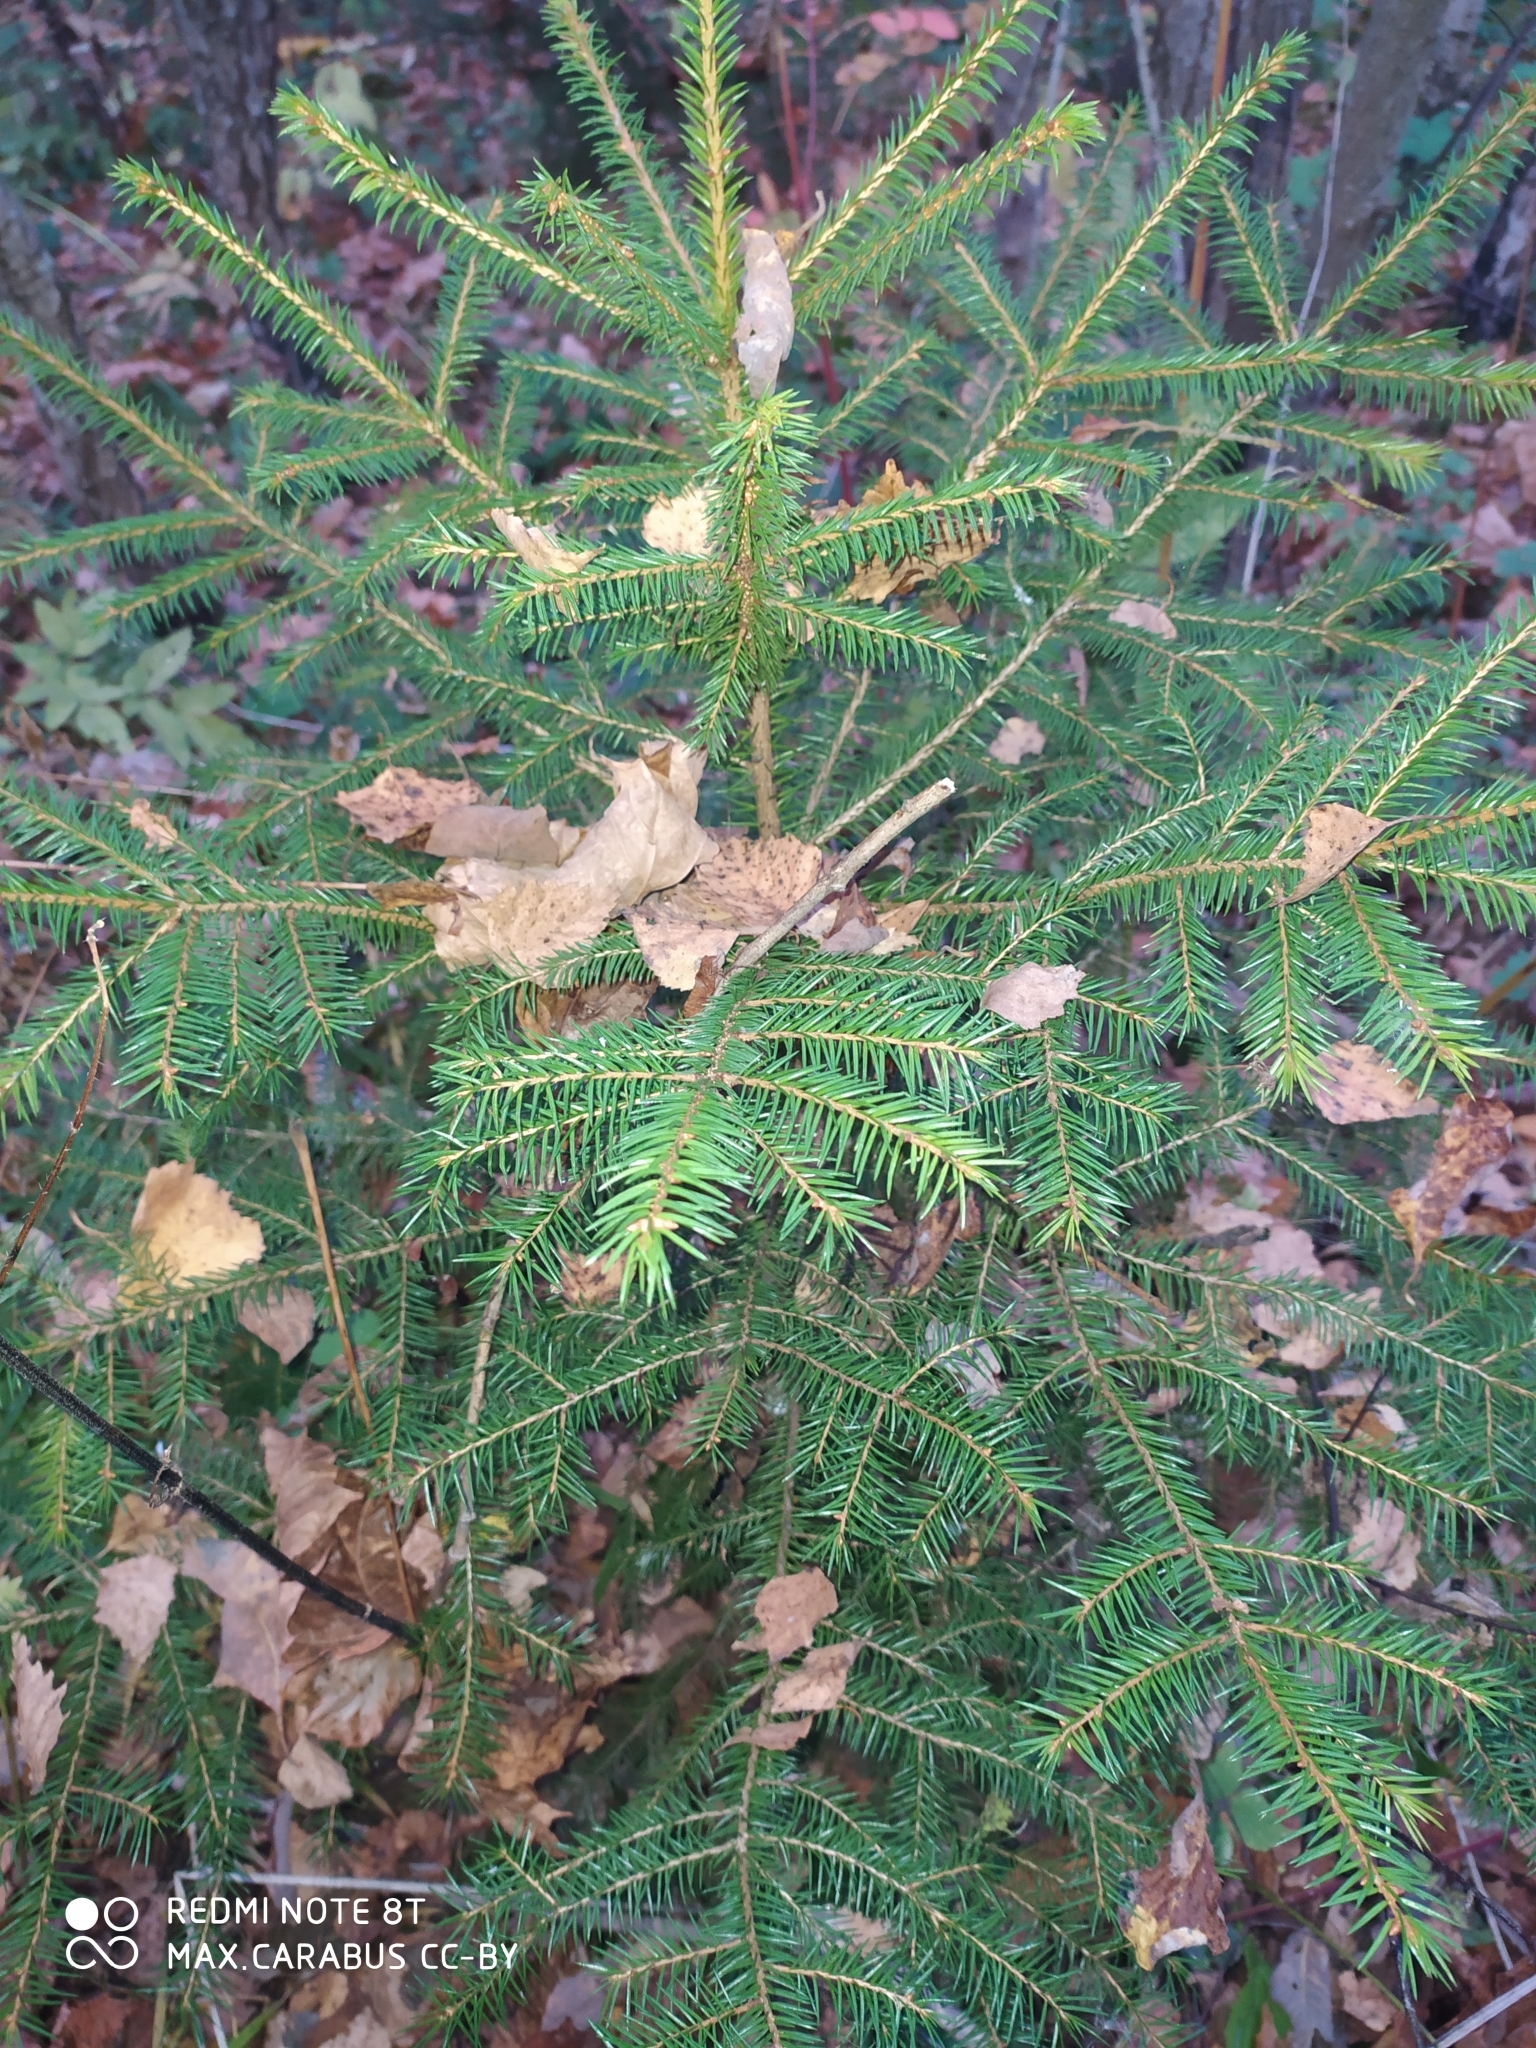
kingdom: Plantae
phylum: Tracheophyta
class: Pinopsida
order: Pinales
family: Pinaceae
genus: Picea
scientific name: Picea abies
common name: Norway spruce
